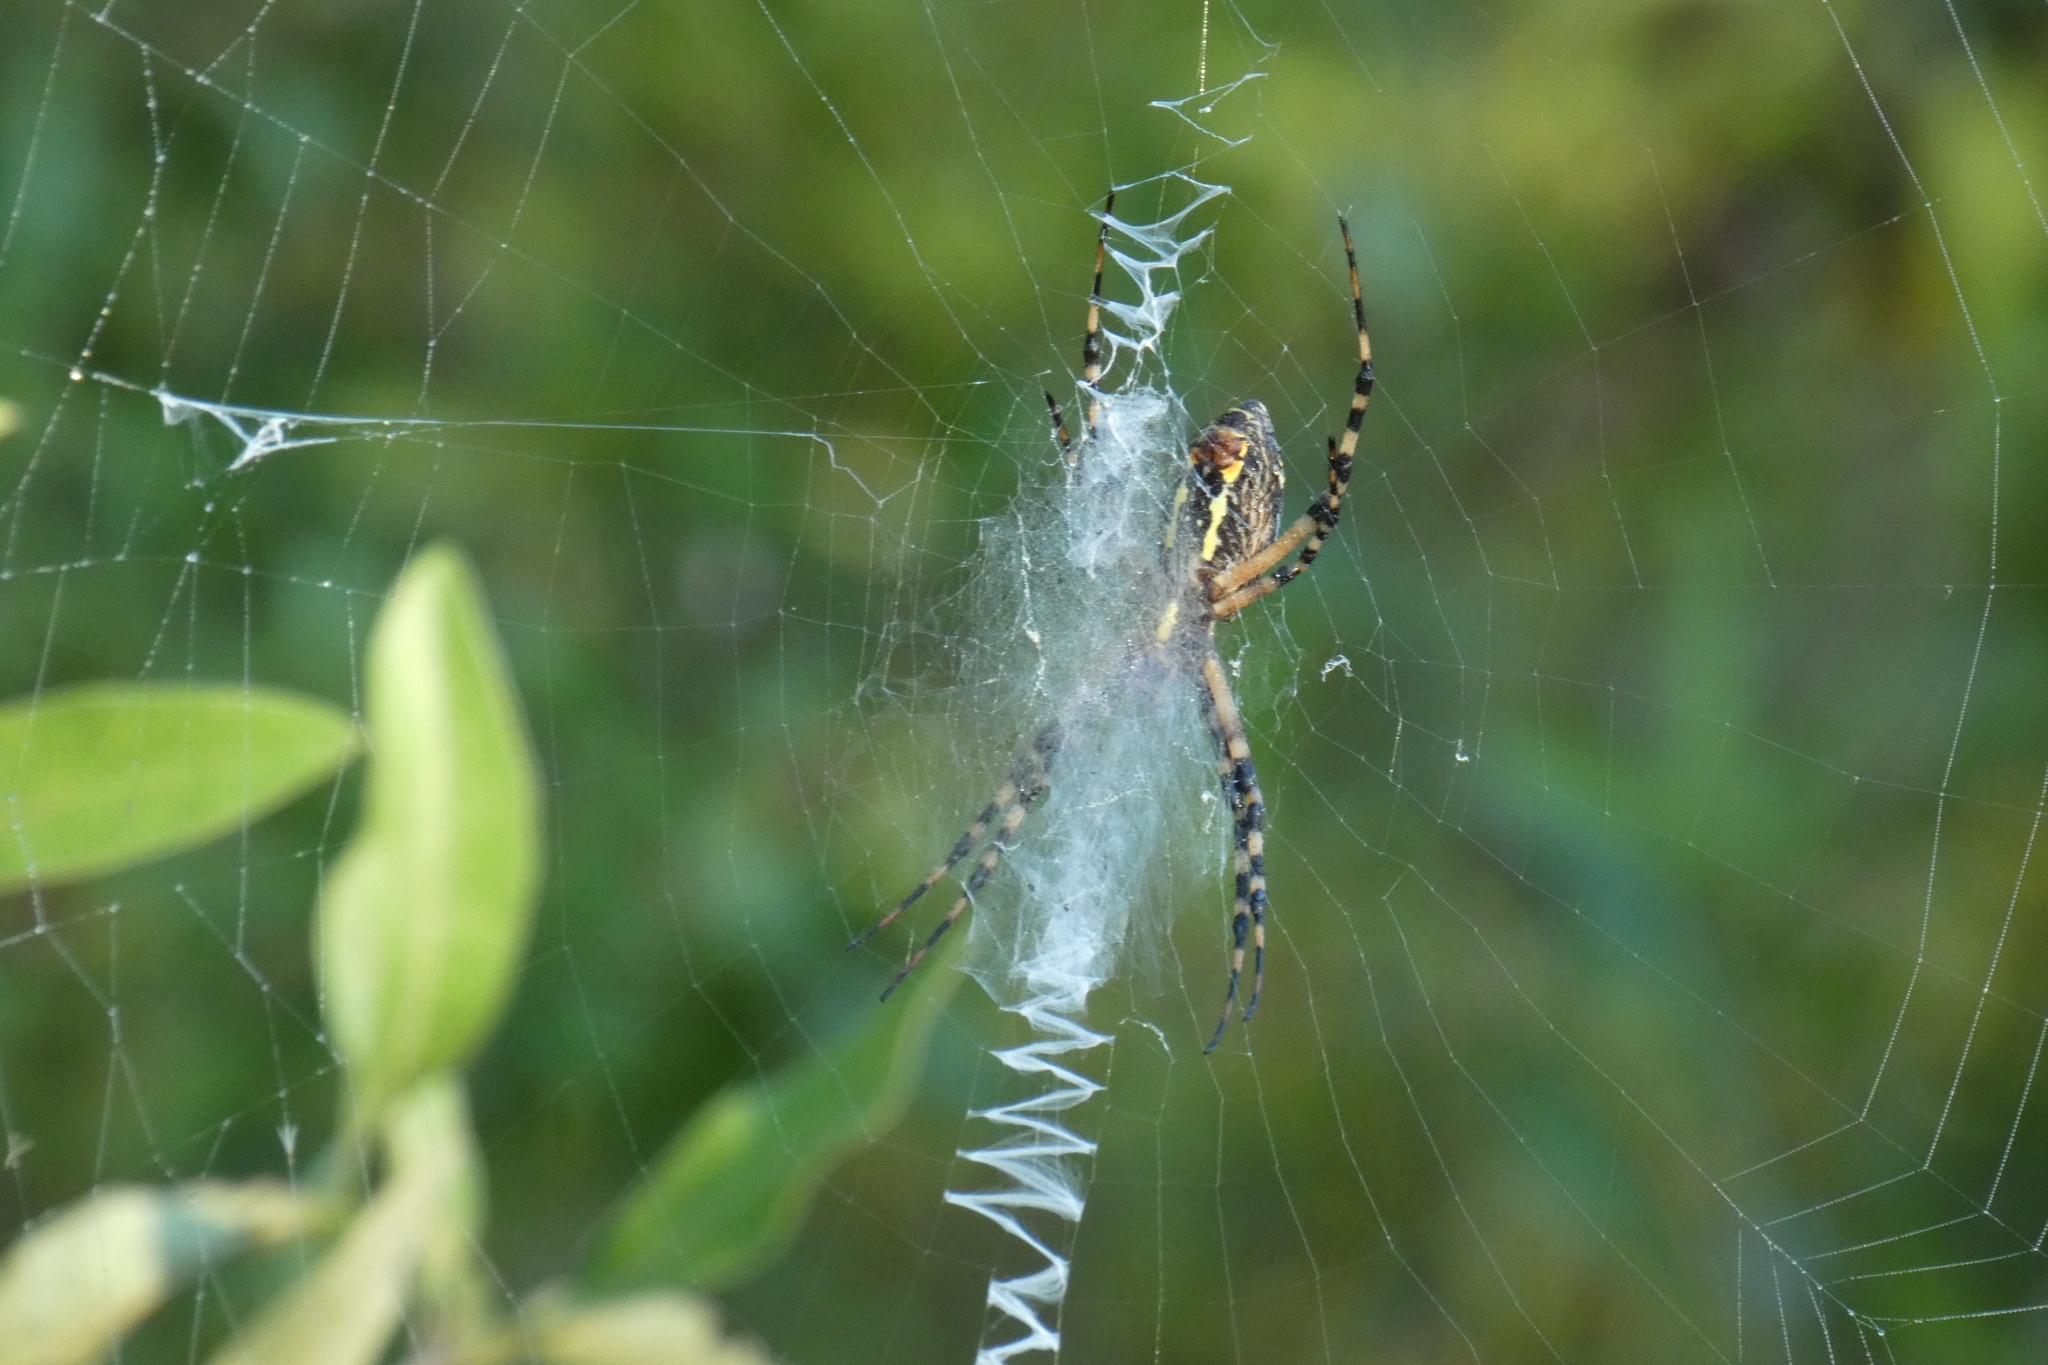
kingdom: Animalia
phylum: Arthropoda
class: Arachnida
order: Araneae
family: Araneidae
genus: Argiope
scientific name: Argiope aurantia
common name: Orb weavers
